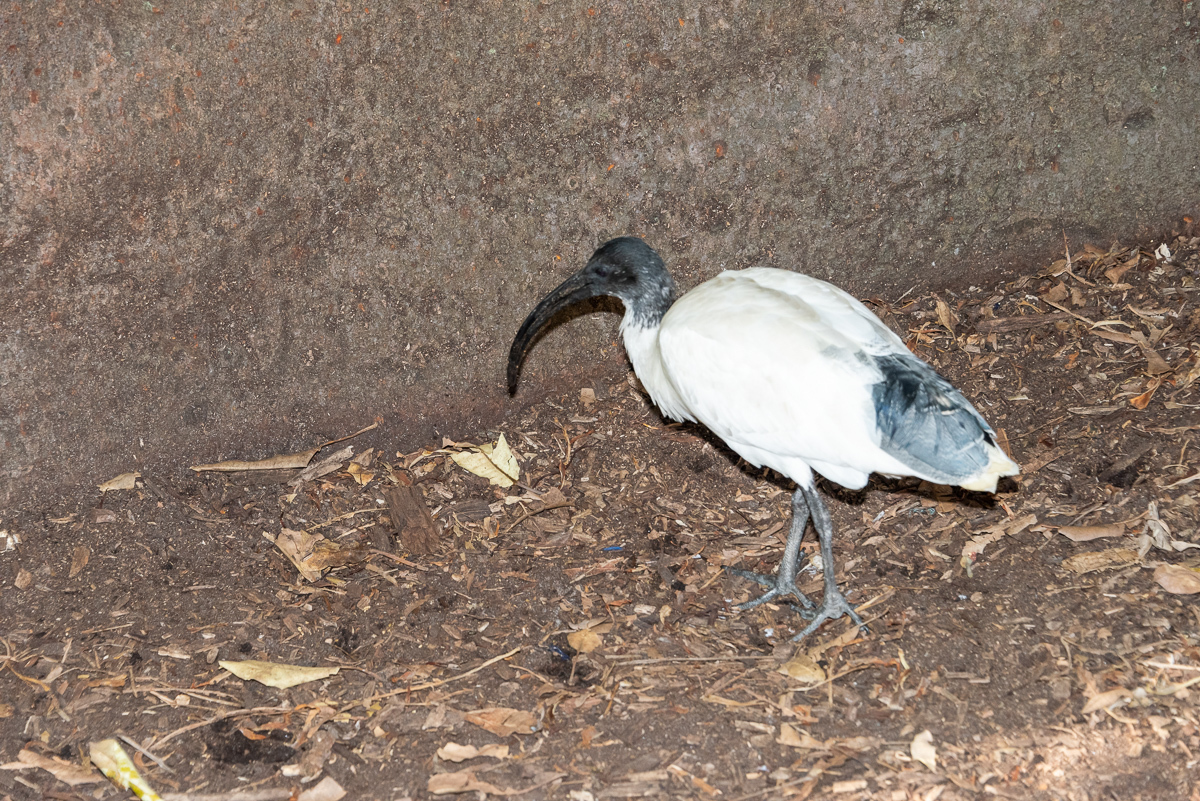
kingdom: Animalia
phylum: Chordata
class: Aves
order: Pelecaniformes
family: Threskiornithidae
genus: Threskiornis
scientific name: Threskiornis molucca
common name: Australian white ibis
